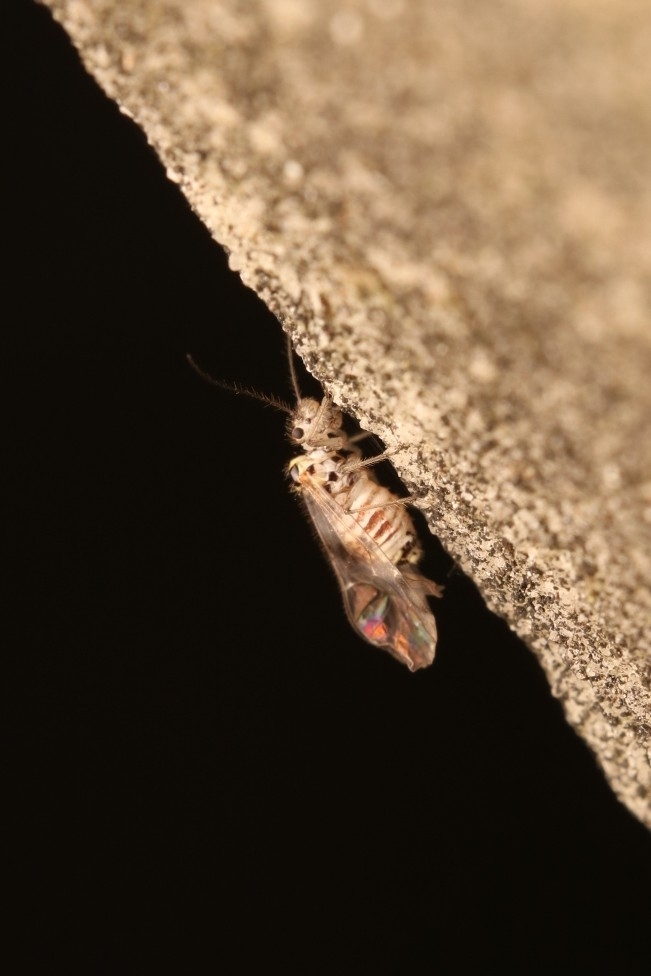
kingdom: Animalia
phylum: Arthropoda
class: Insecta
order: Psocodea
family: Dasydemellidae
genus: Teliapsocus
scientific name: Teliapsocus conterminus
